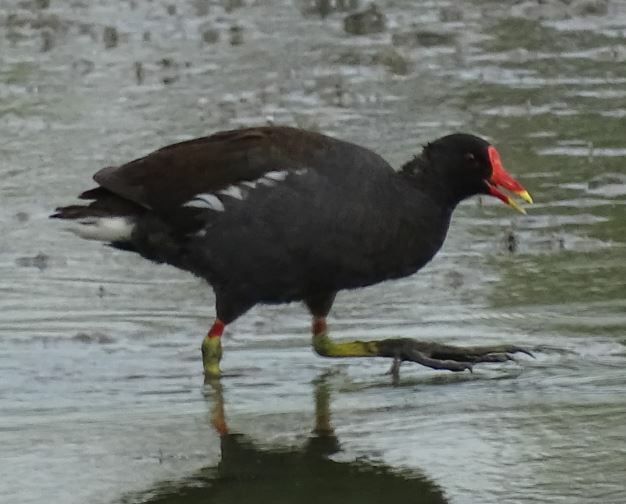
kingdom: Animalia
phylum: Chordata
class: Aves
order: Gruiformes
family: Rallidae
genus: Gallinula
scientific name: Gallinula chloropus
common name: Common moorhen
